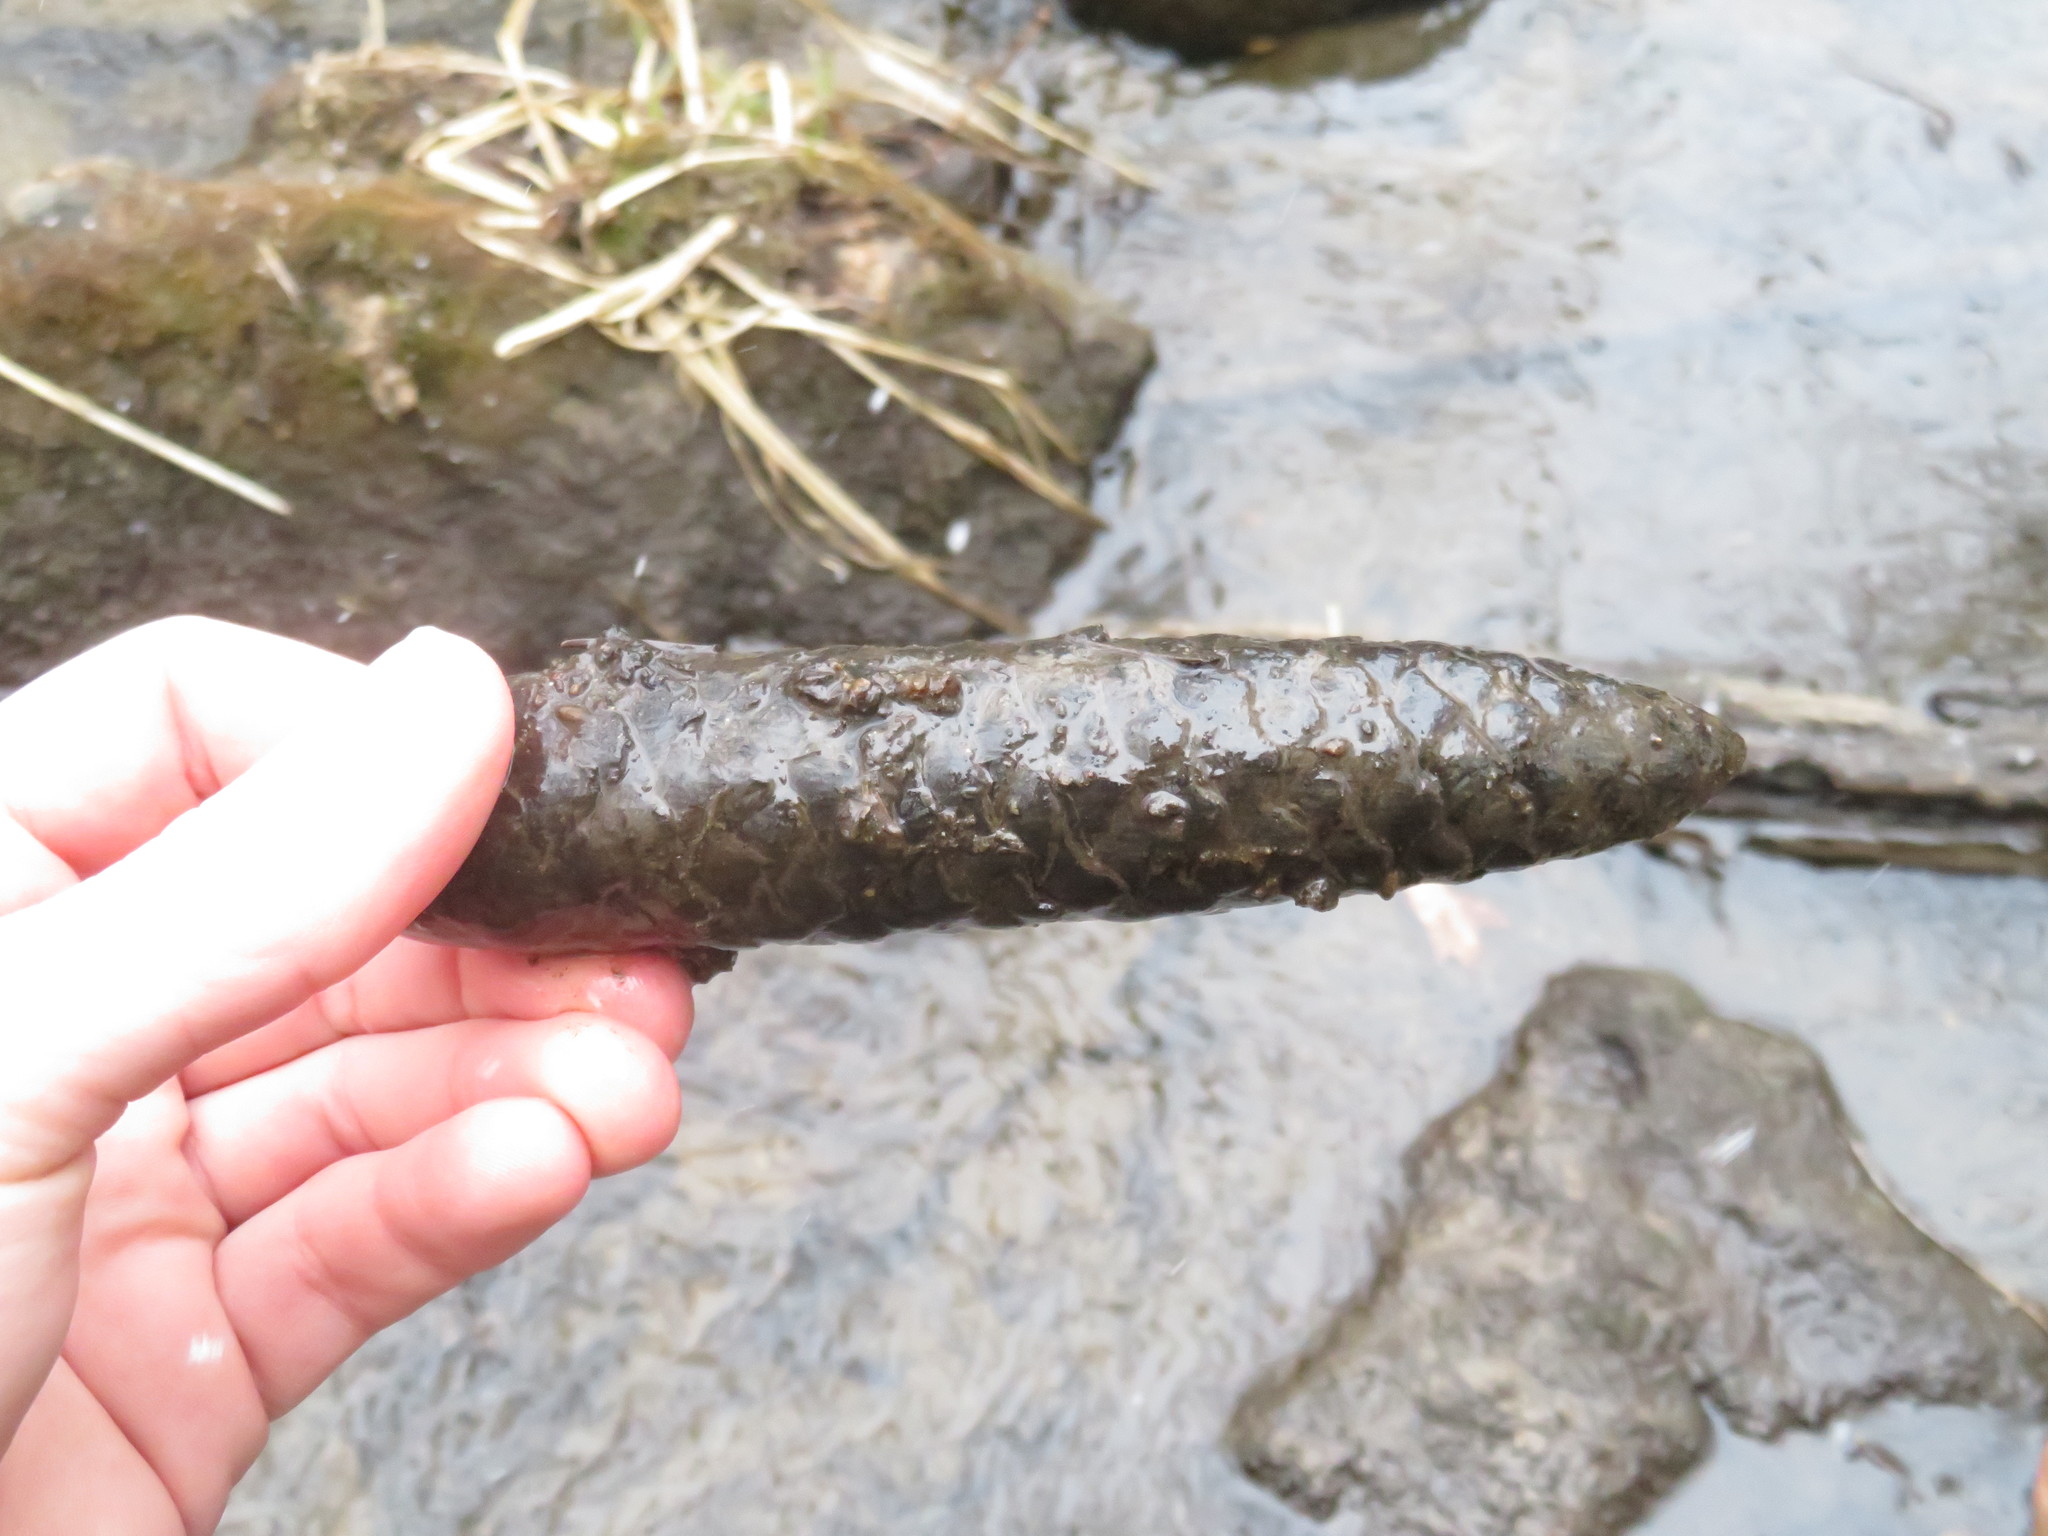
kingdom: Plantae
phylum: Tracheophyta
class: Pinopsida
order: Pinales
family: Pinaceae
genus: Picea
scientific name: Picea abies
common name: Norway spruce
